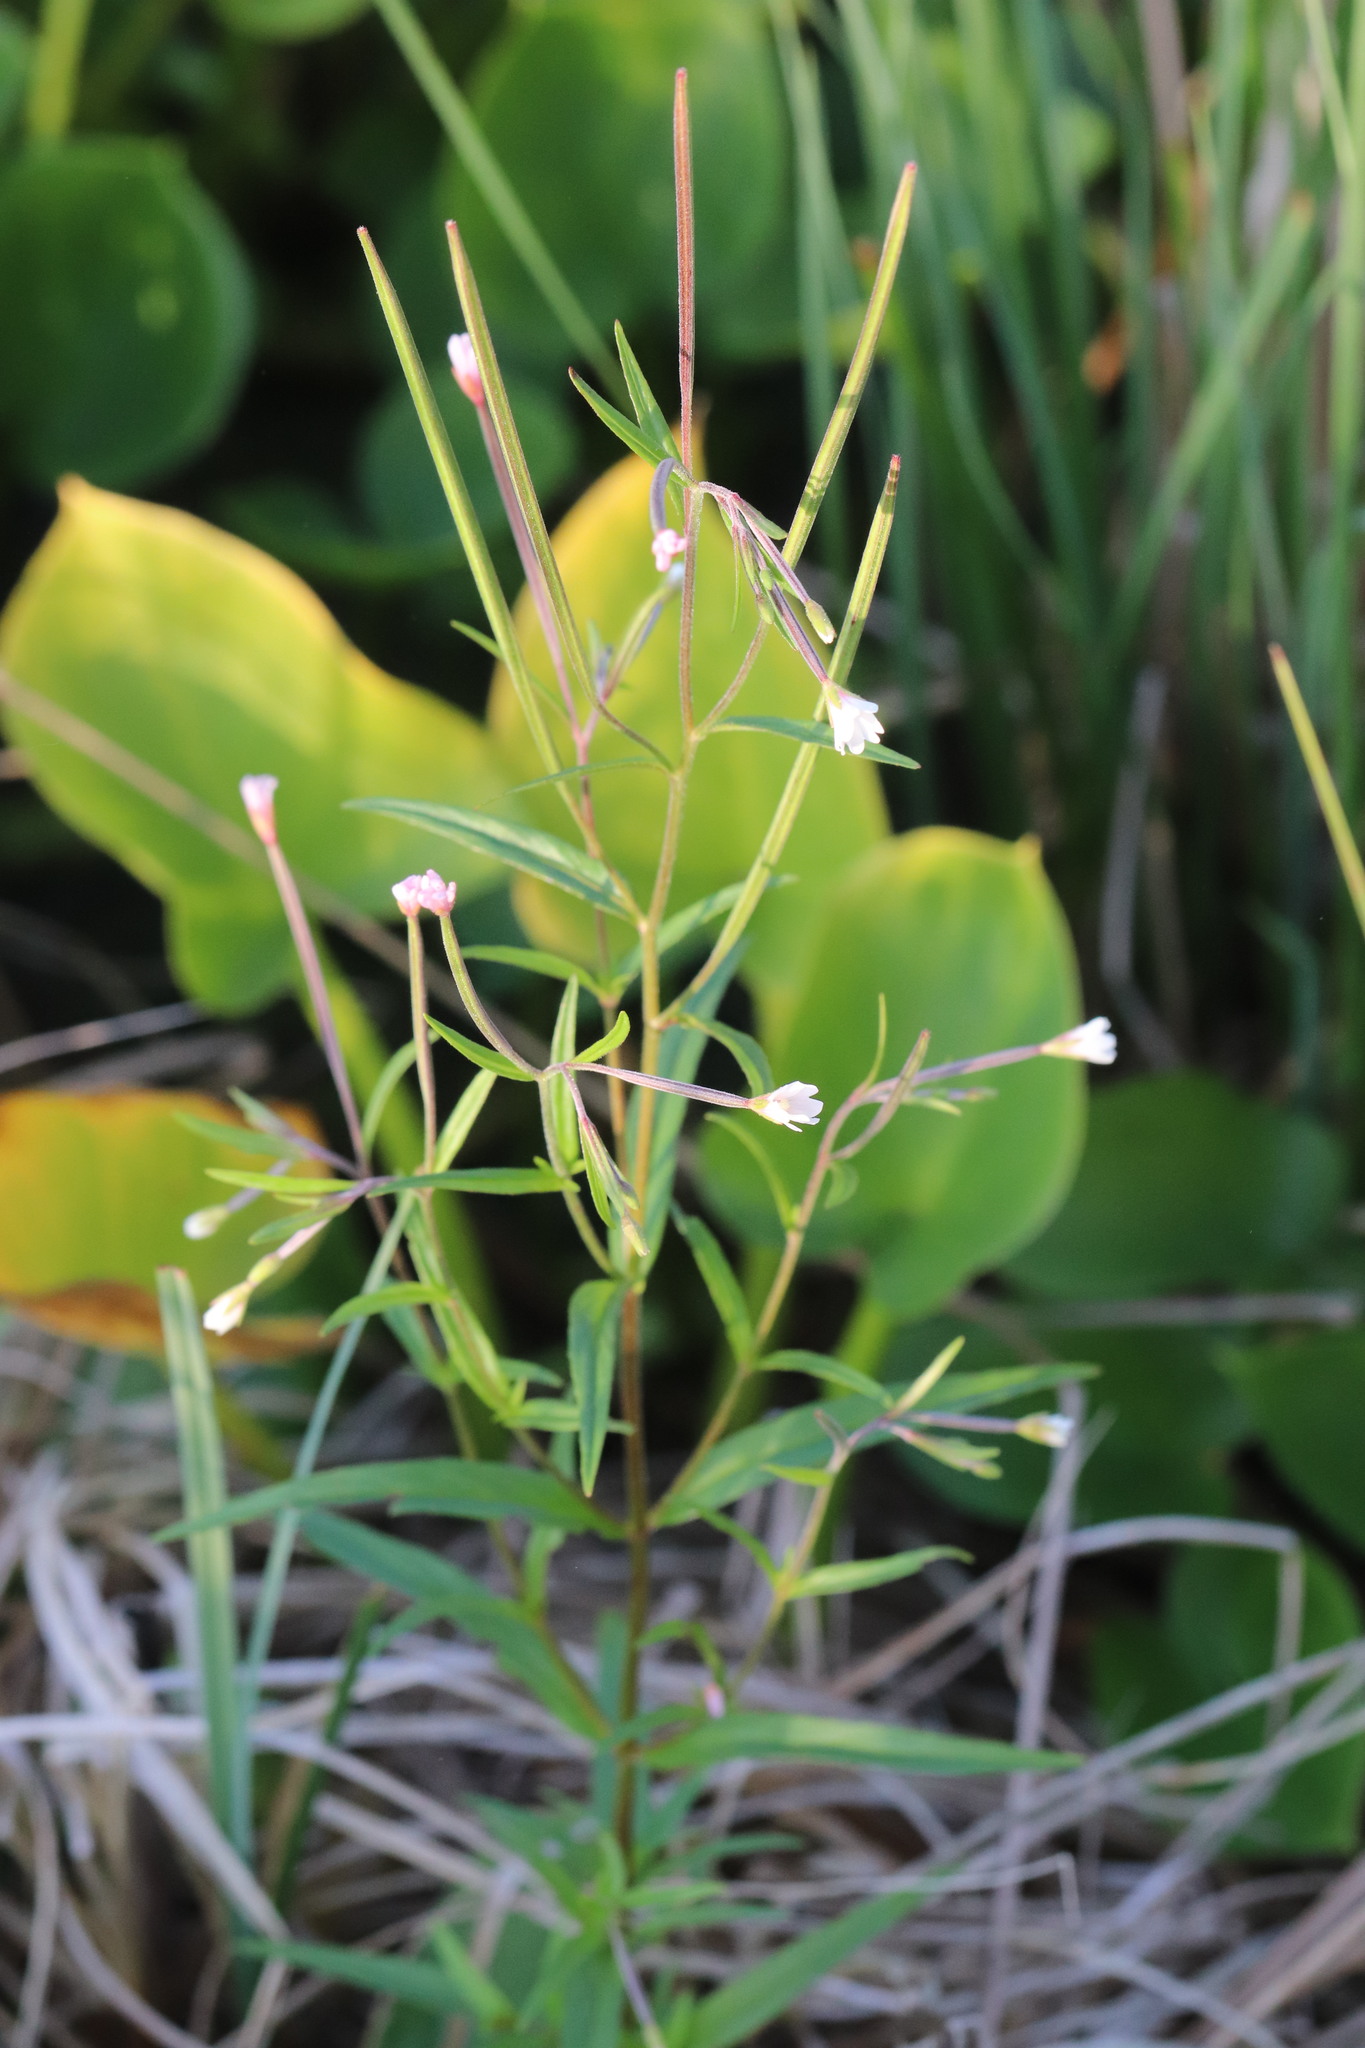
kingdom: Plantae
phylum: Tracheophyta
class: Magnoliopsida
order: Myrtales
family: Onagraceae
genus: Epilobium
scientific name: Epilobium palustre
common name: Marsh willowherb
